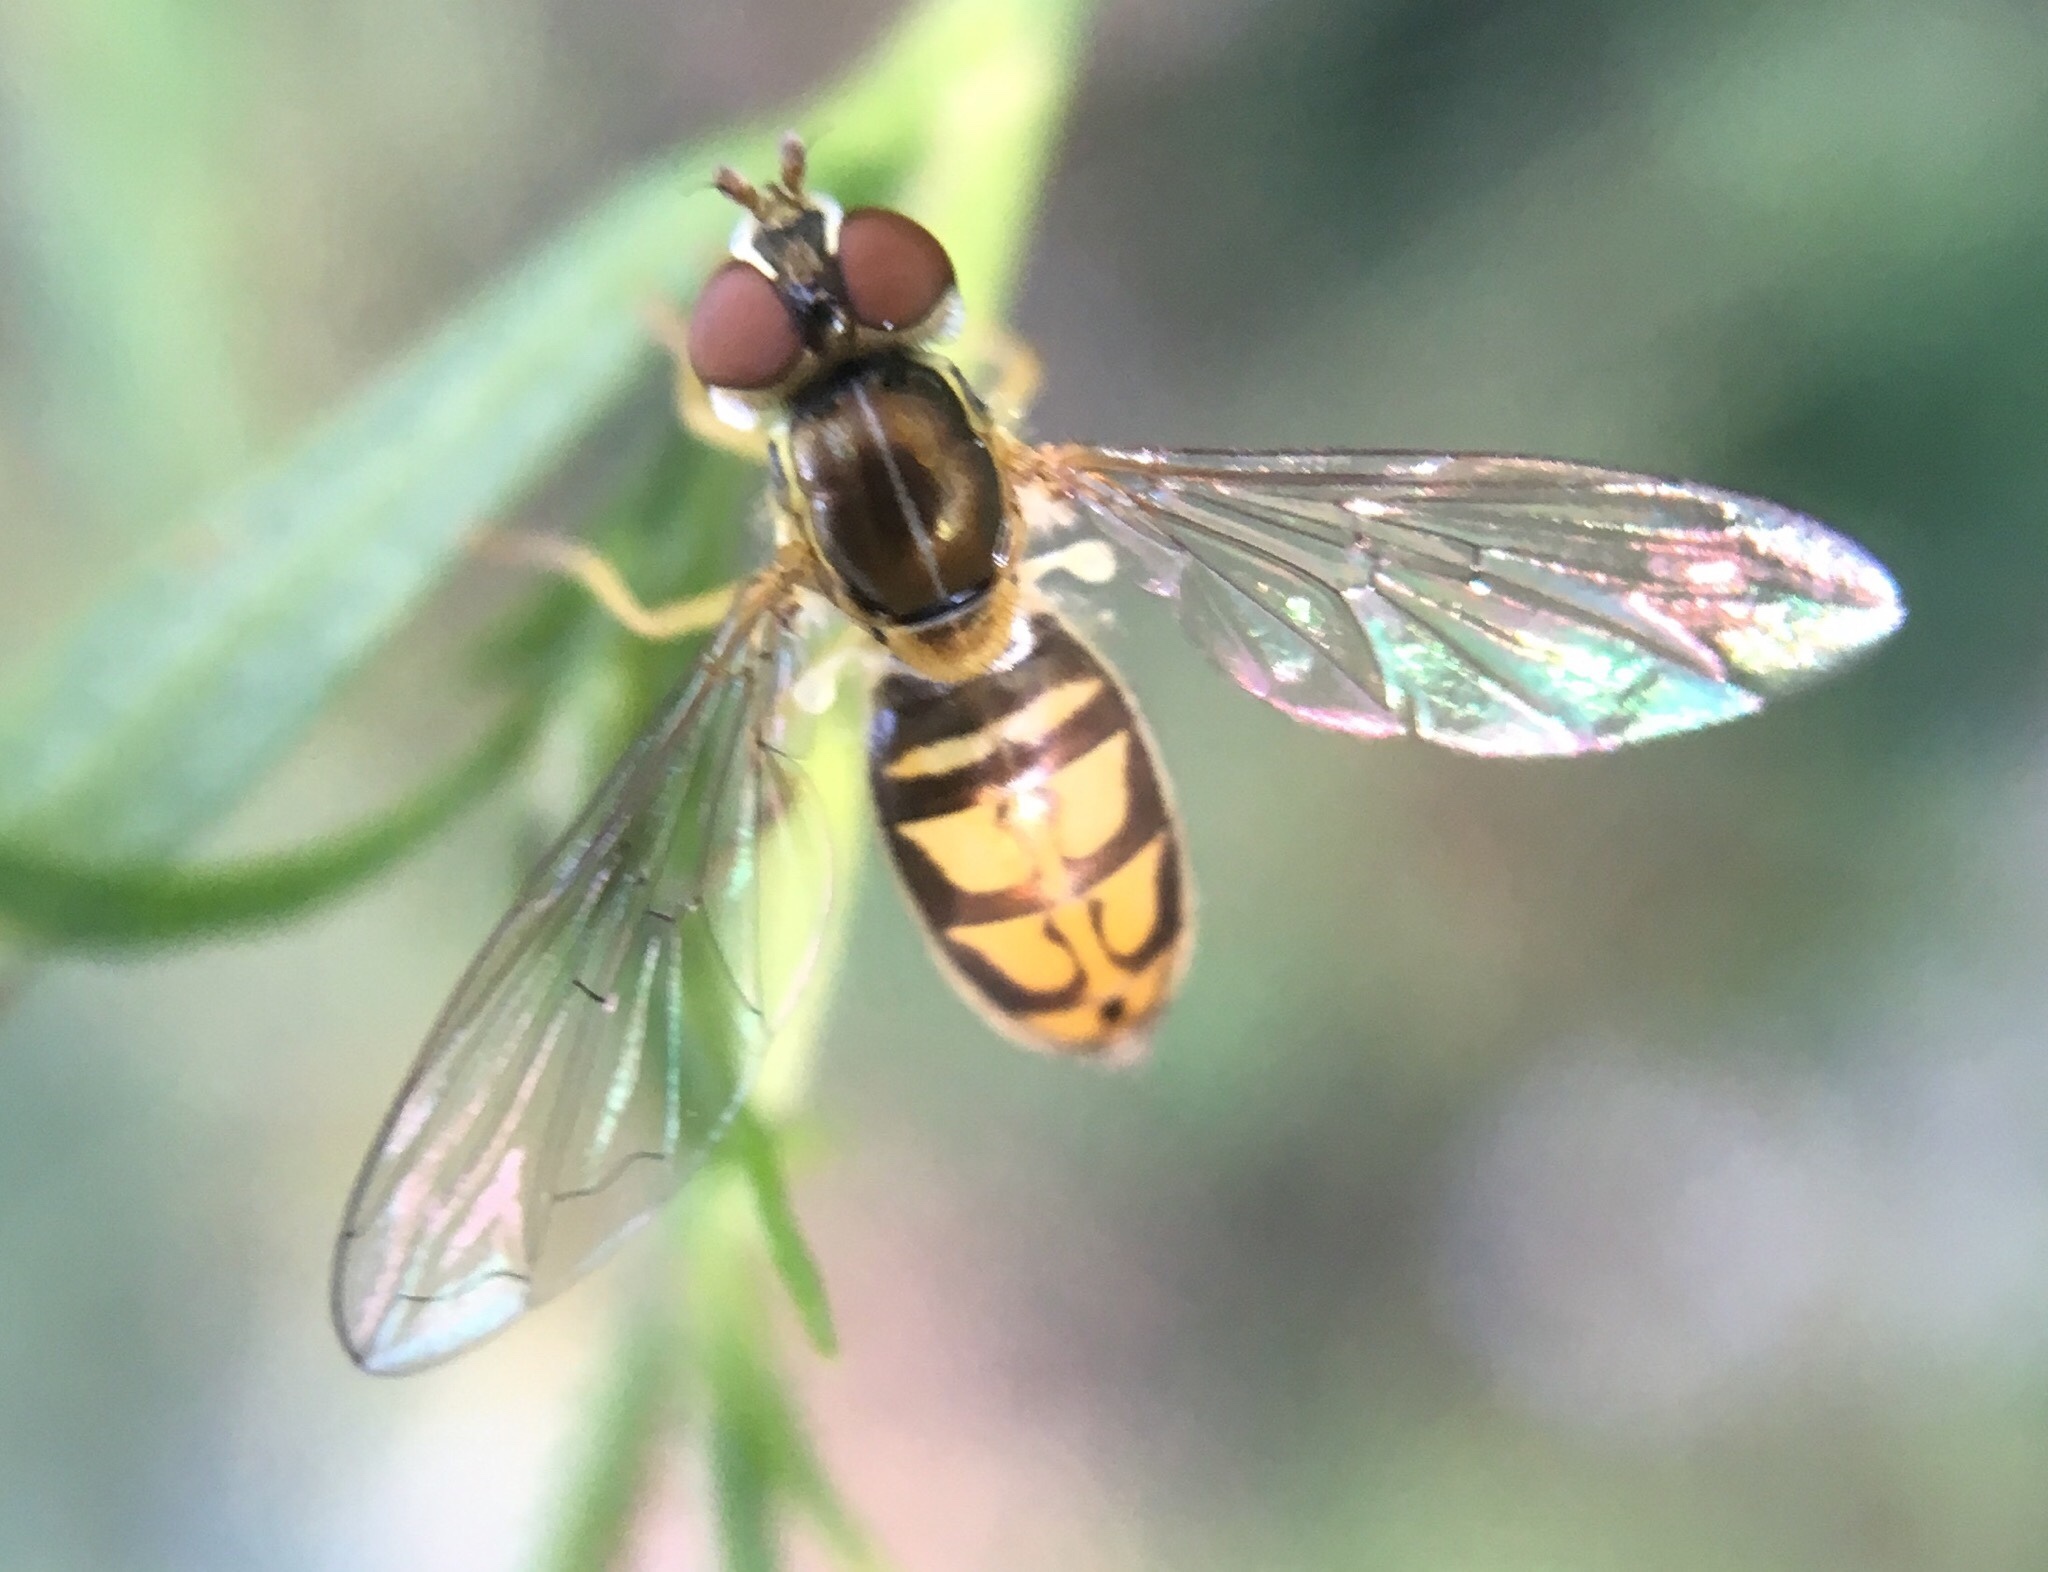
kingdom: Animalia
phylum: Arthropoda
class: Insecta
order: Diptera
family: Syrphidae
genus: Toxomerus
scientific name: Toxomerus marginatus
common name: Syrphid fly
